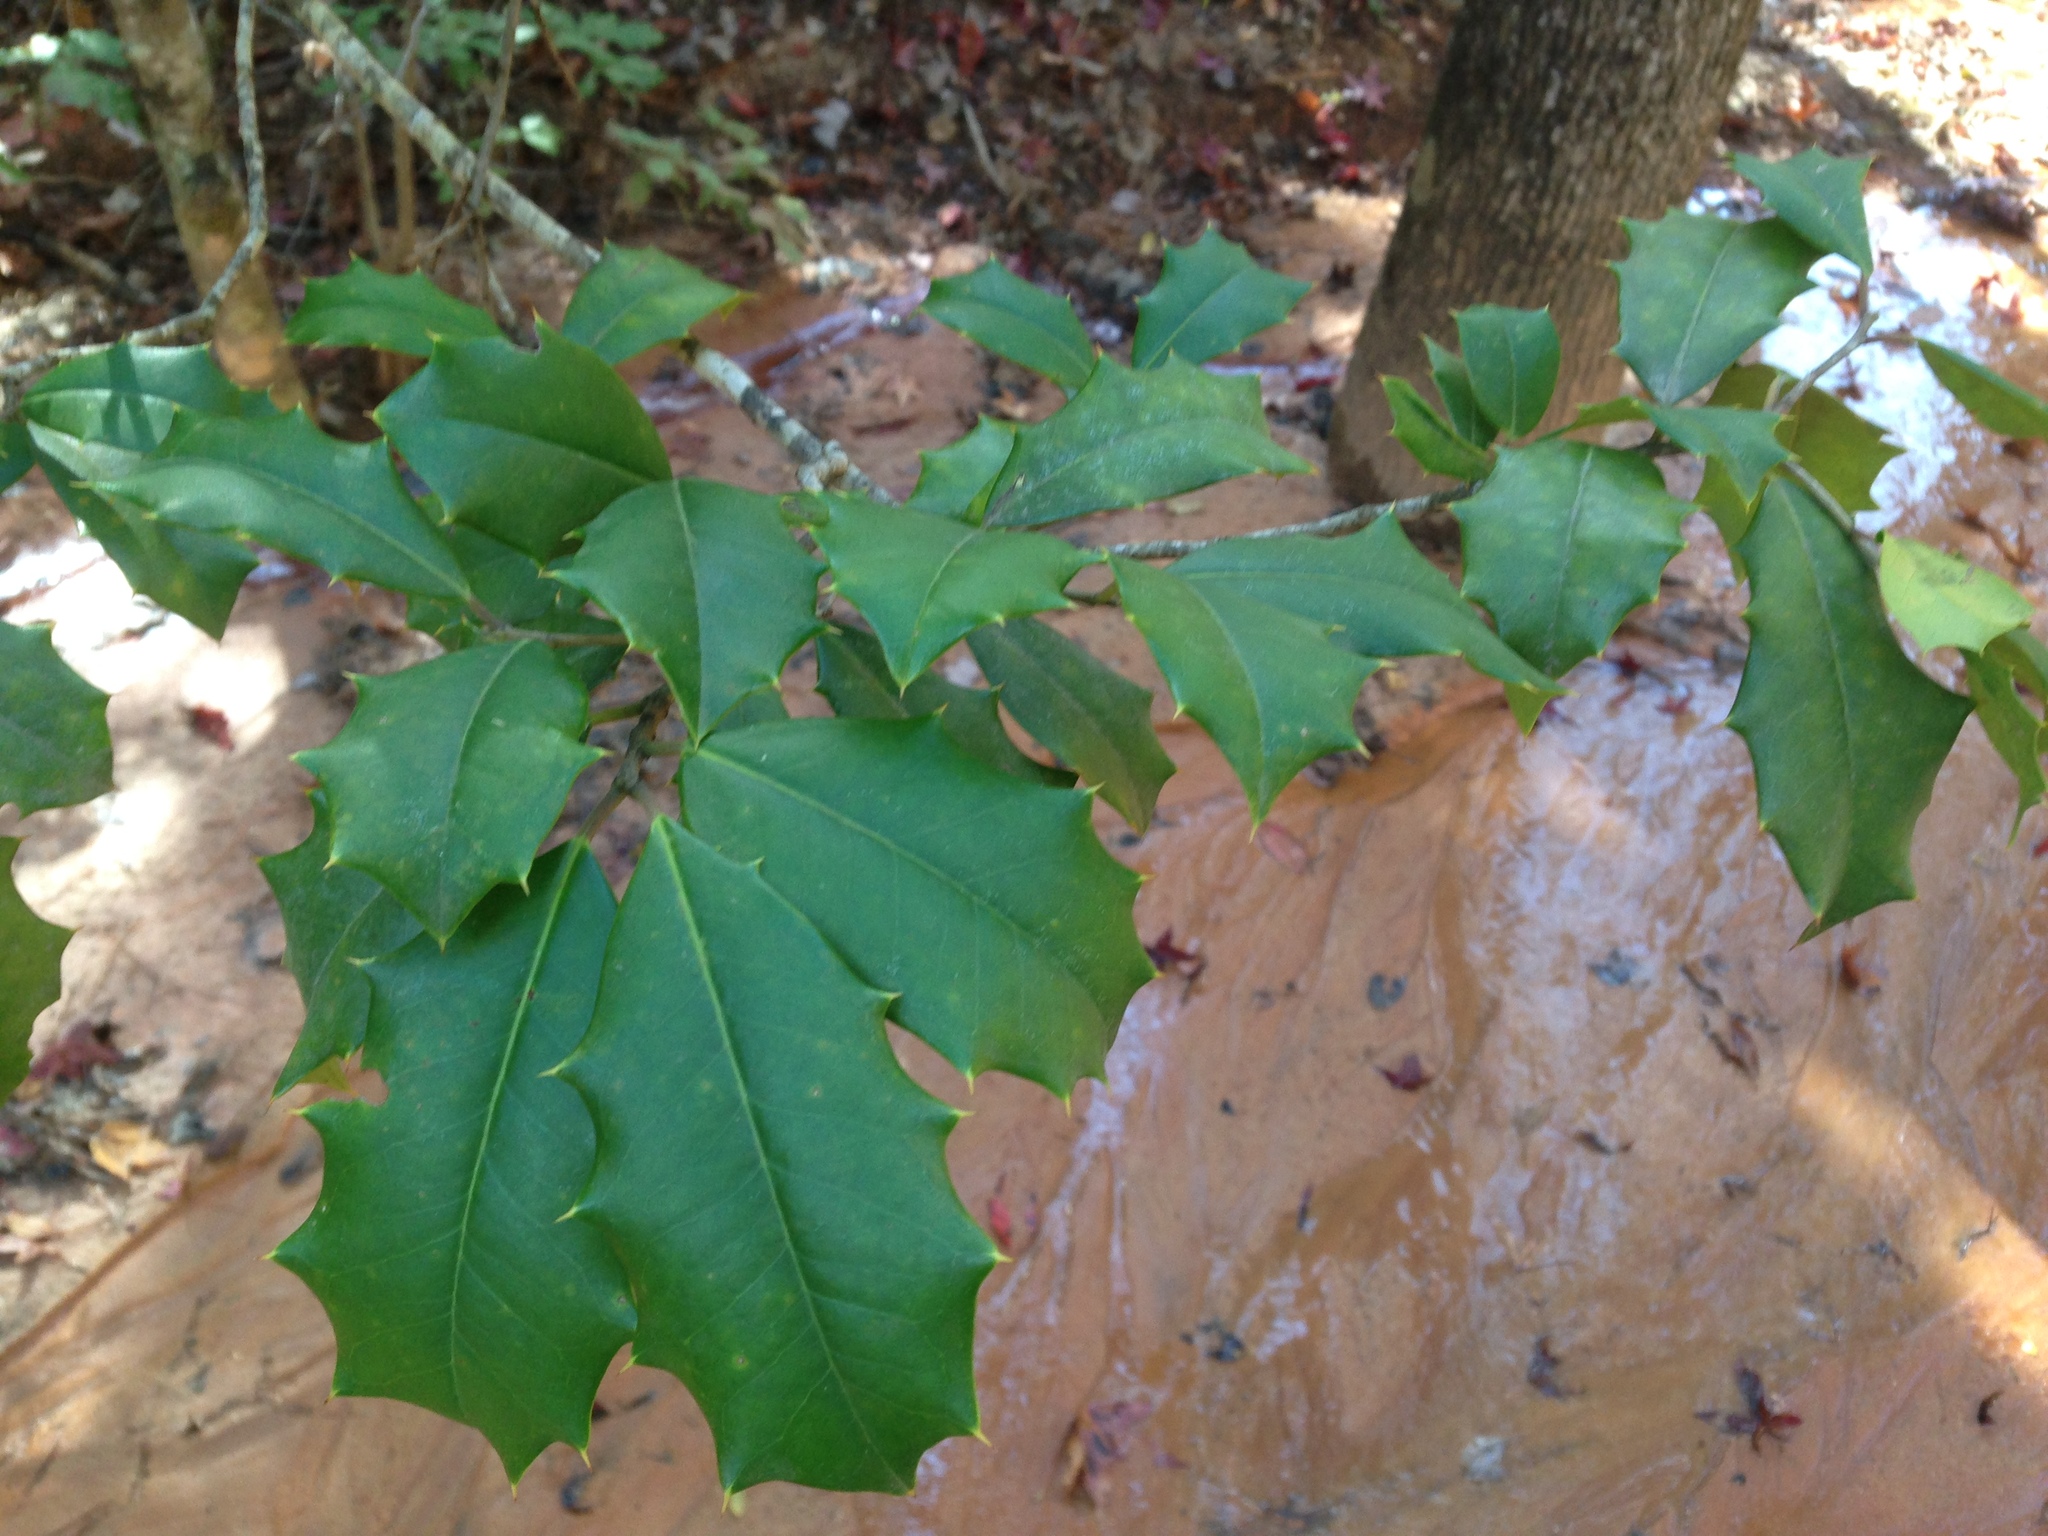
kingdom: Plantae
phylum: Tracheophyta
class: Magnoliopsida
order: Aquifoliales
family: Aquifoliaceae
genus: Ilex
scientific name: Ilex opaca
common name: American holly
